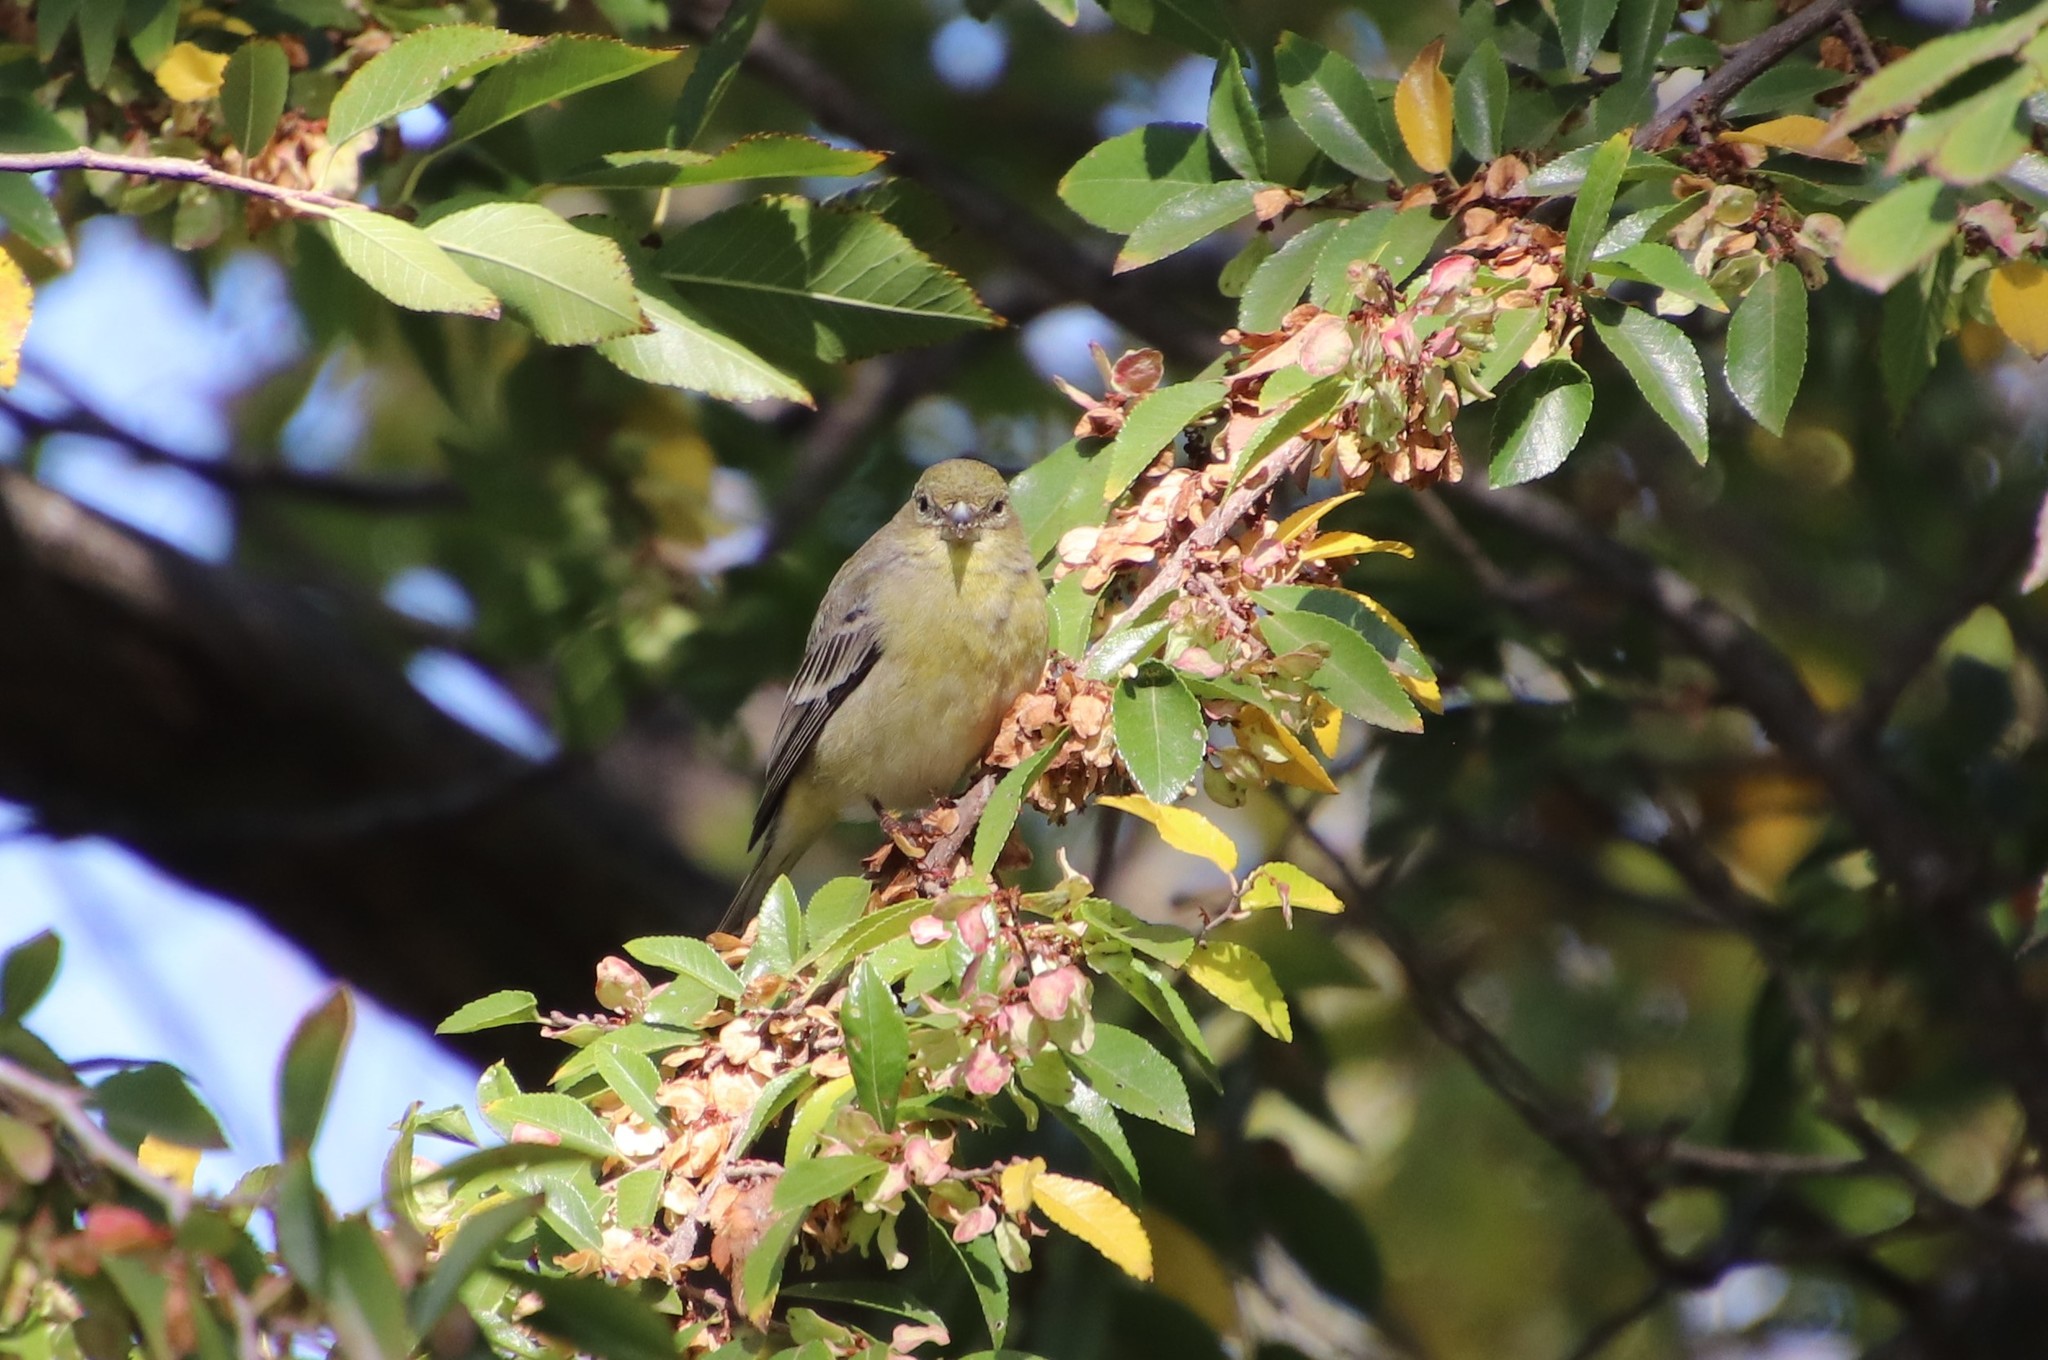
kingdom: Animalia
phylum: Chordata
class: Aves
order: Passeriformes
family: Fringillidae
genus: Spinus
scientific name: Spinus psaltria
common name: Lesser goldfinch
